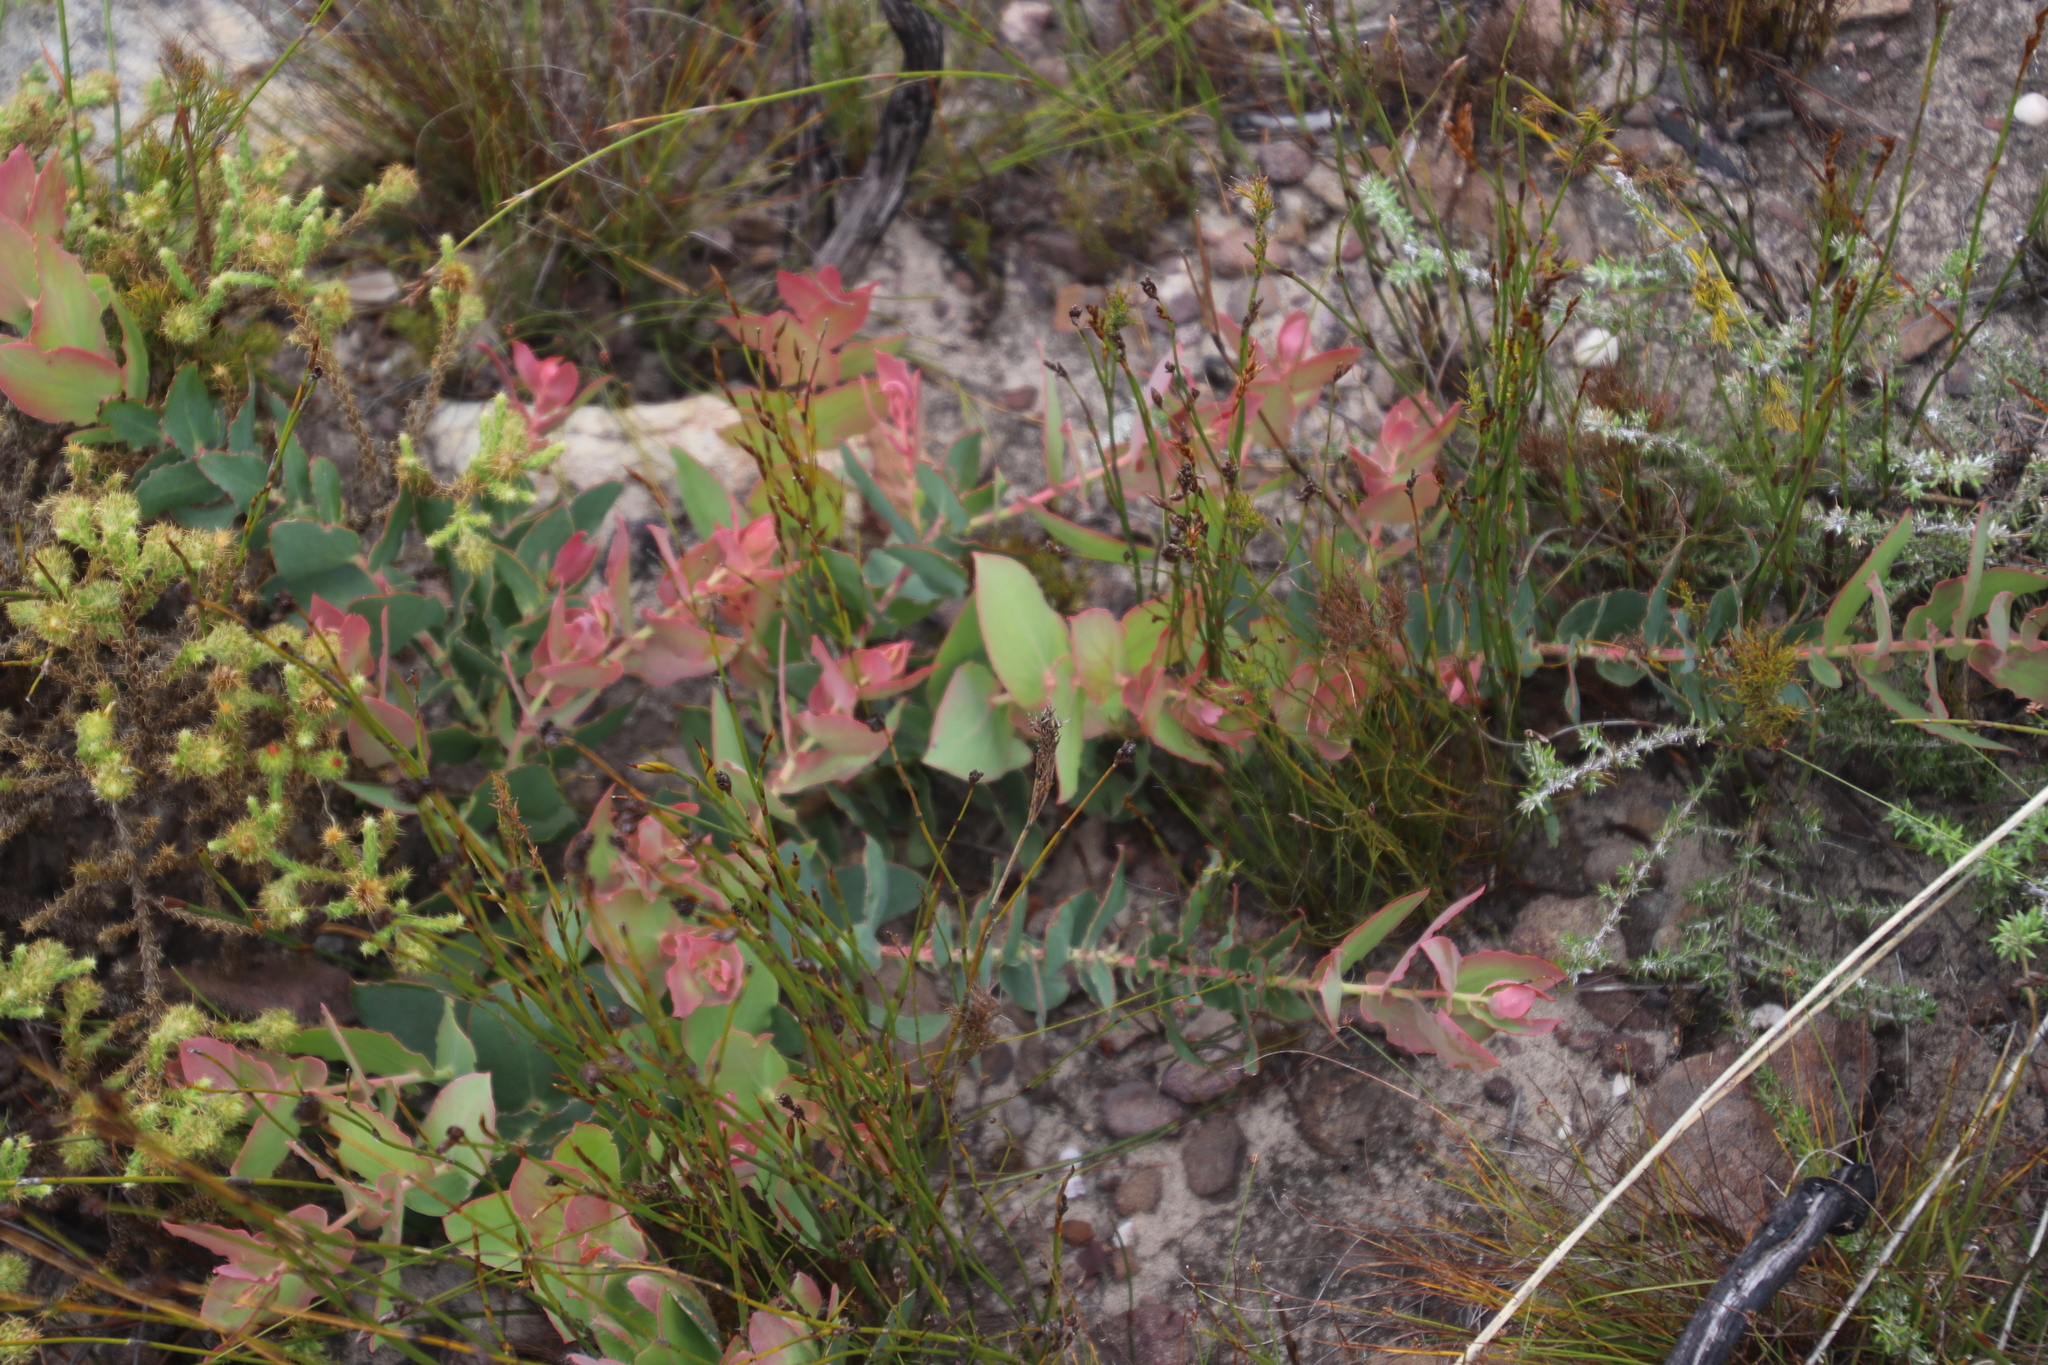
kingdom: Plantae
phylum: Tracheophyta
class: Magnoliopsida
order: Proteales
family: Proteaceae
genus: Protea
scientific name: Protea amplexicaulis
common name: Clasping-leaf sugarbush
